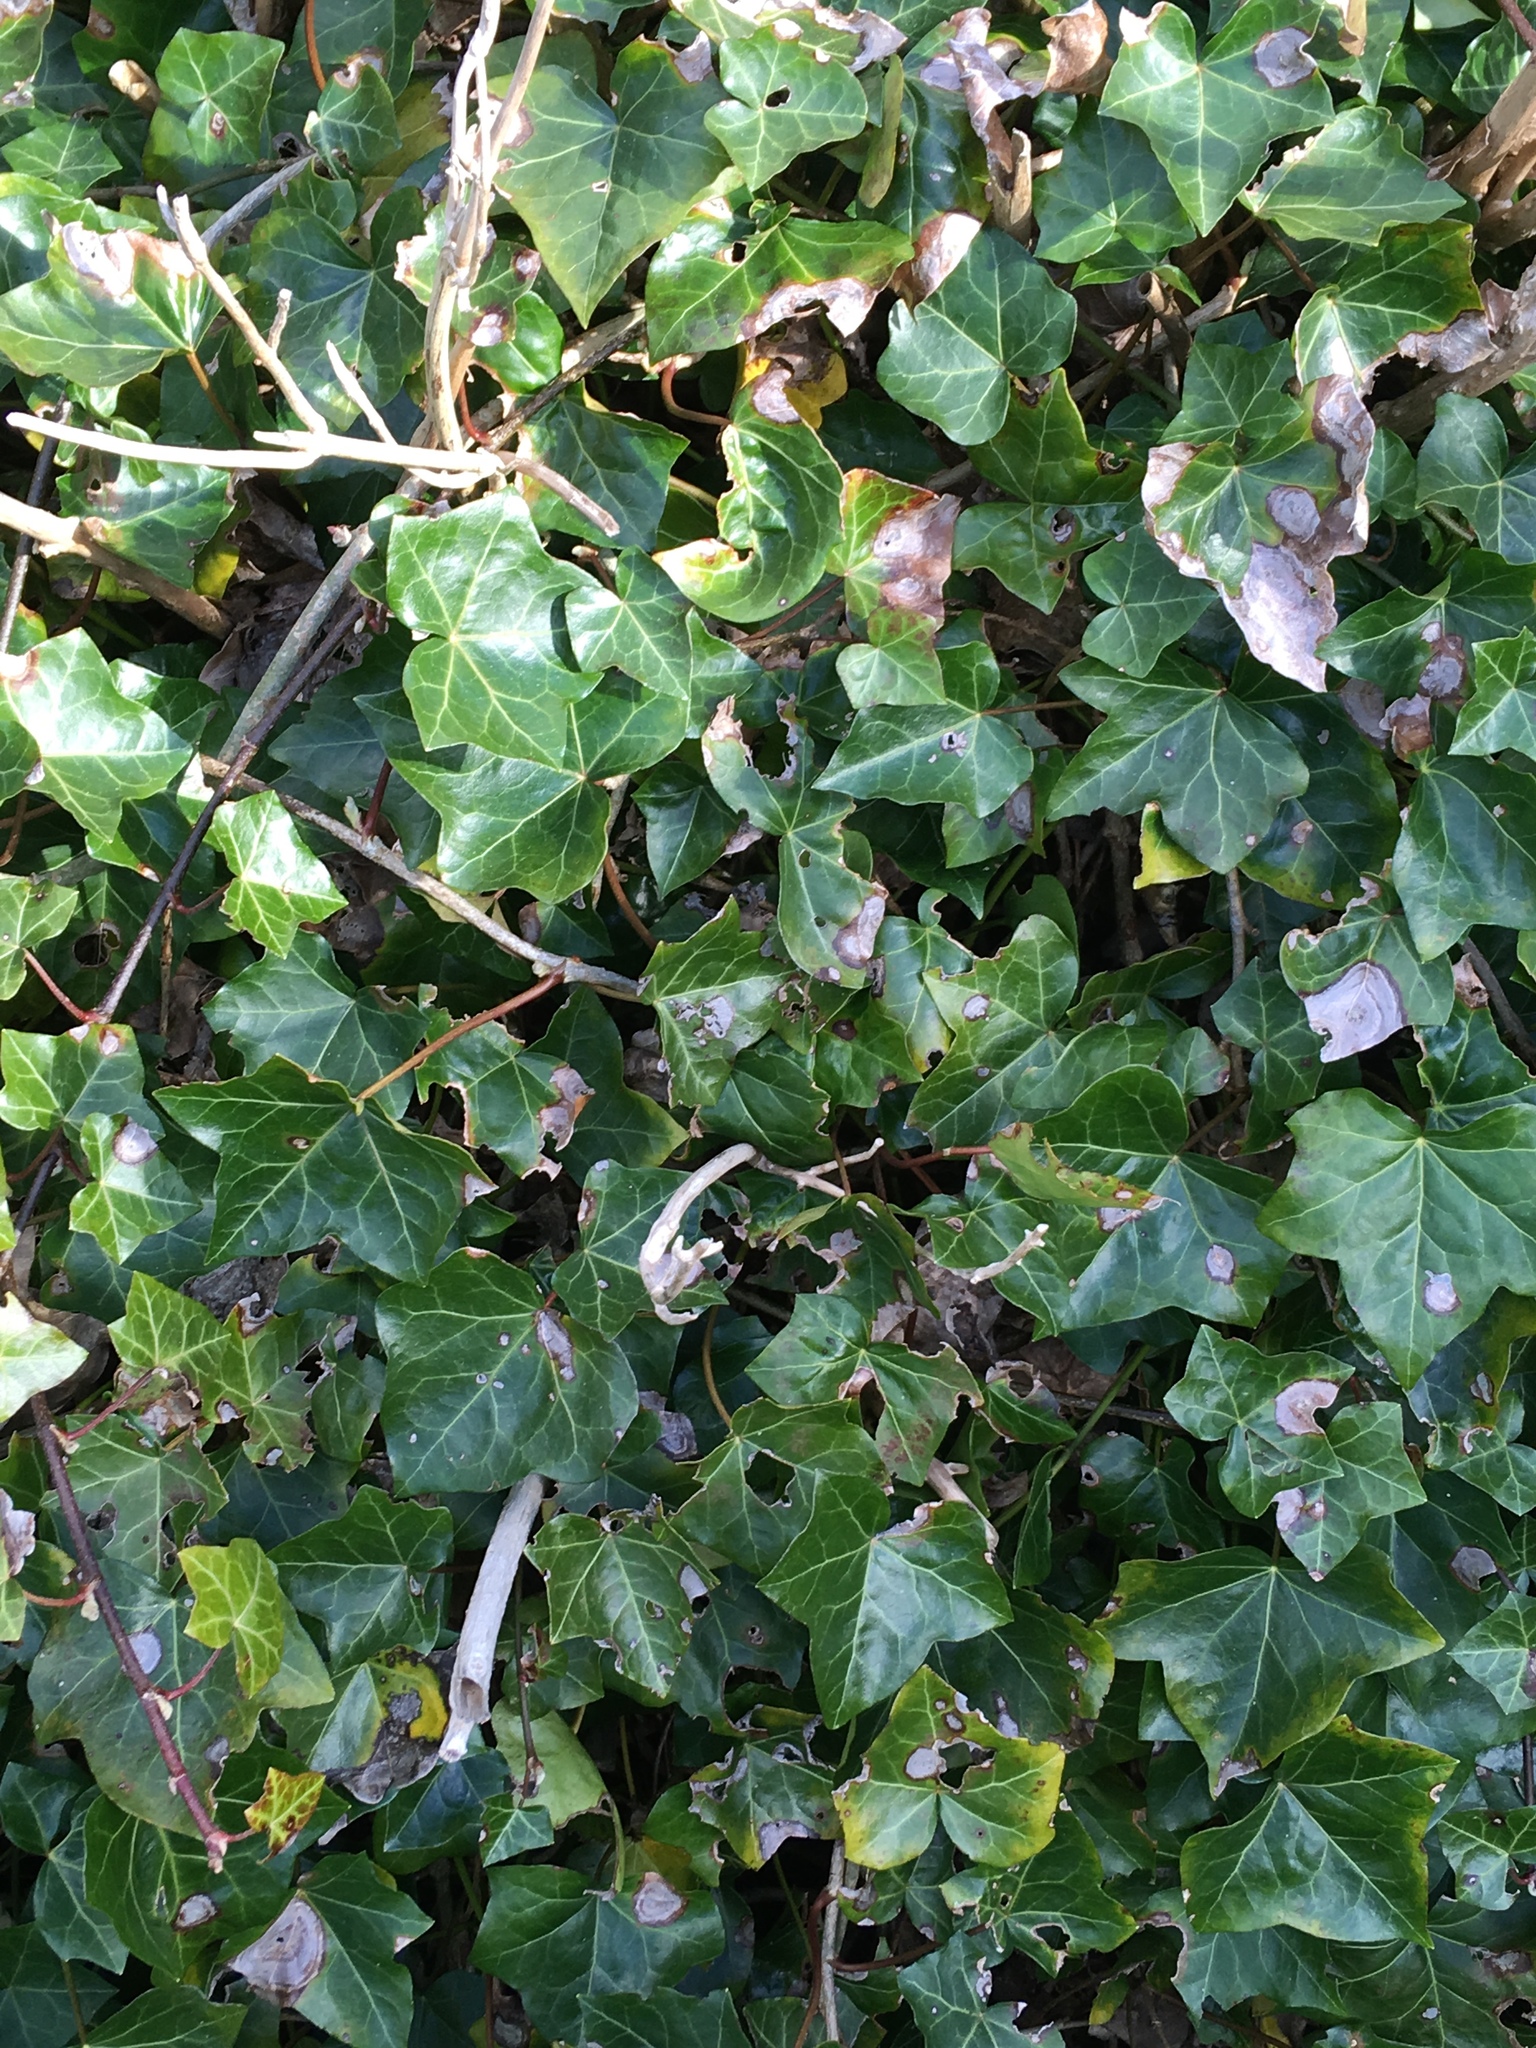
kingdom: Plantae
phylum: Tracheophyta
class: Magnoliopsida
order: Apiales
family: Araliaceae
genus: Hedera
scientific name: Hedera helix
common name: Ivy
